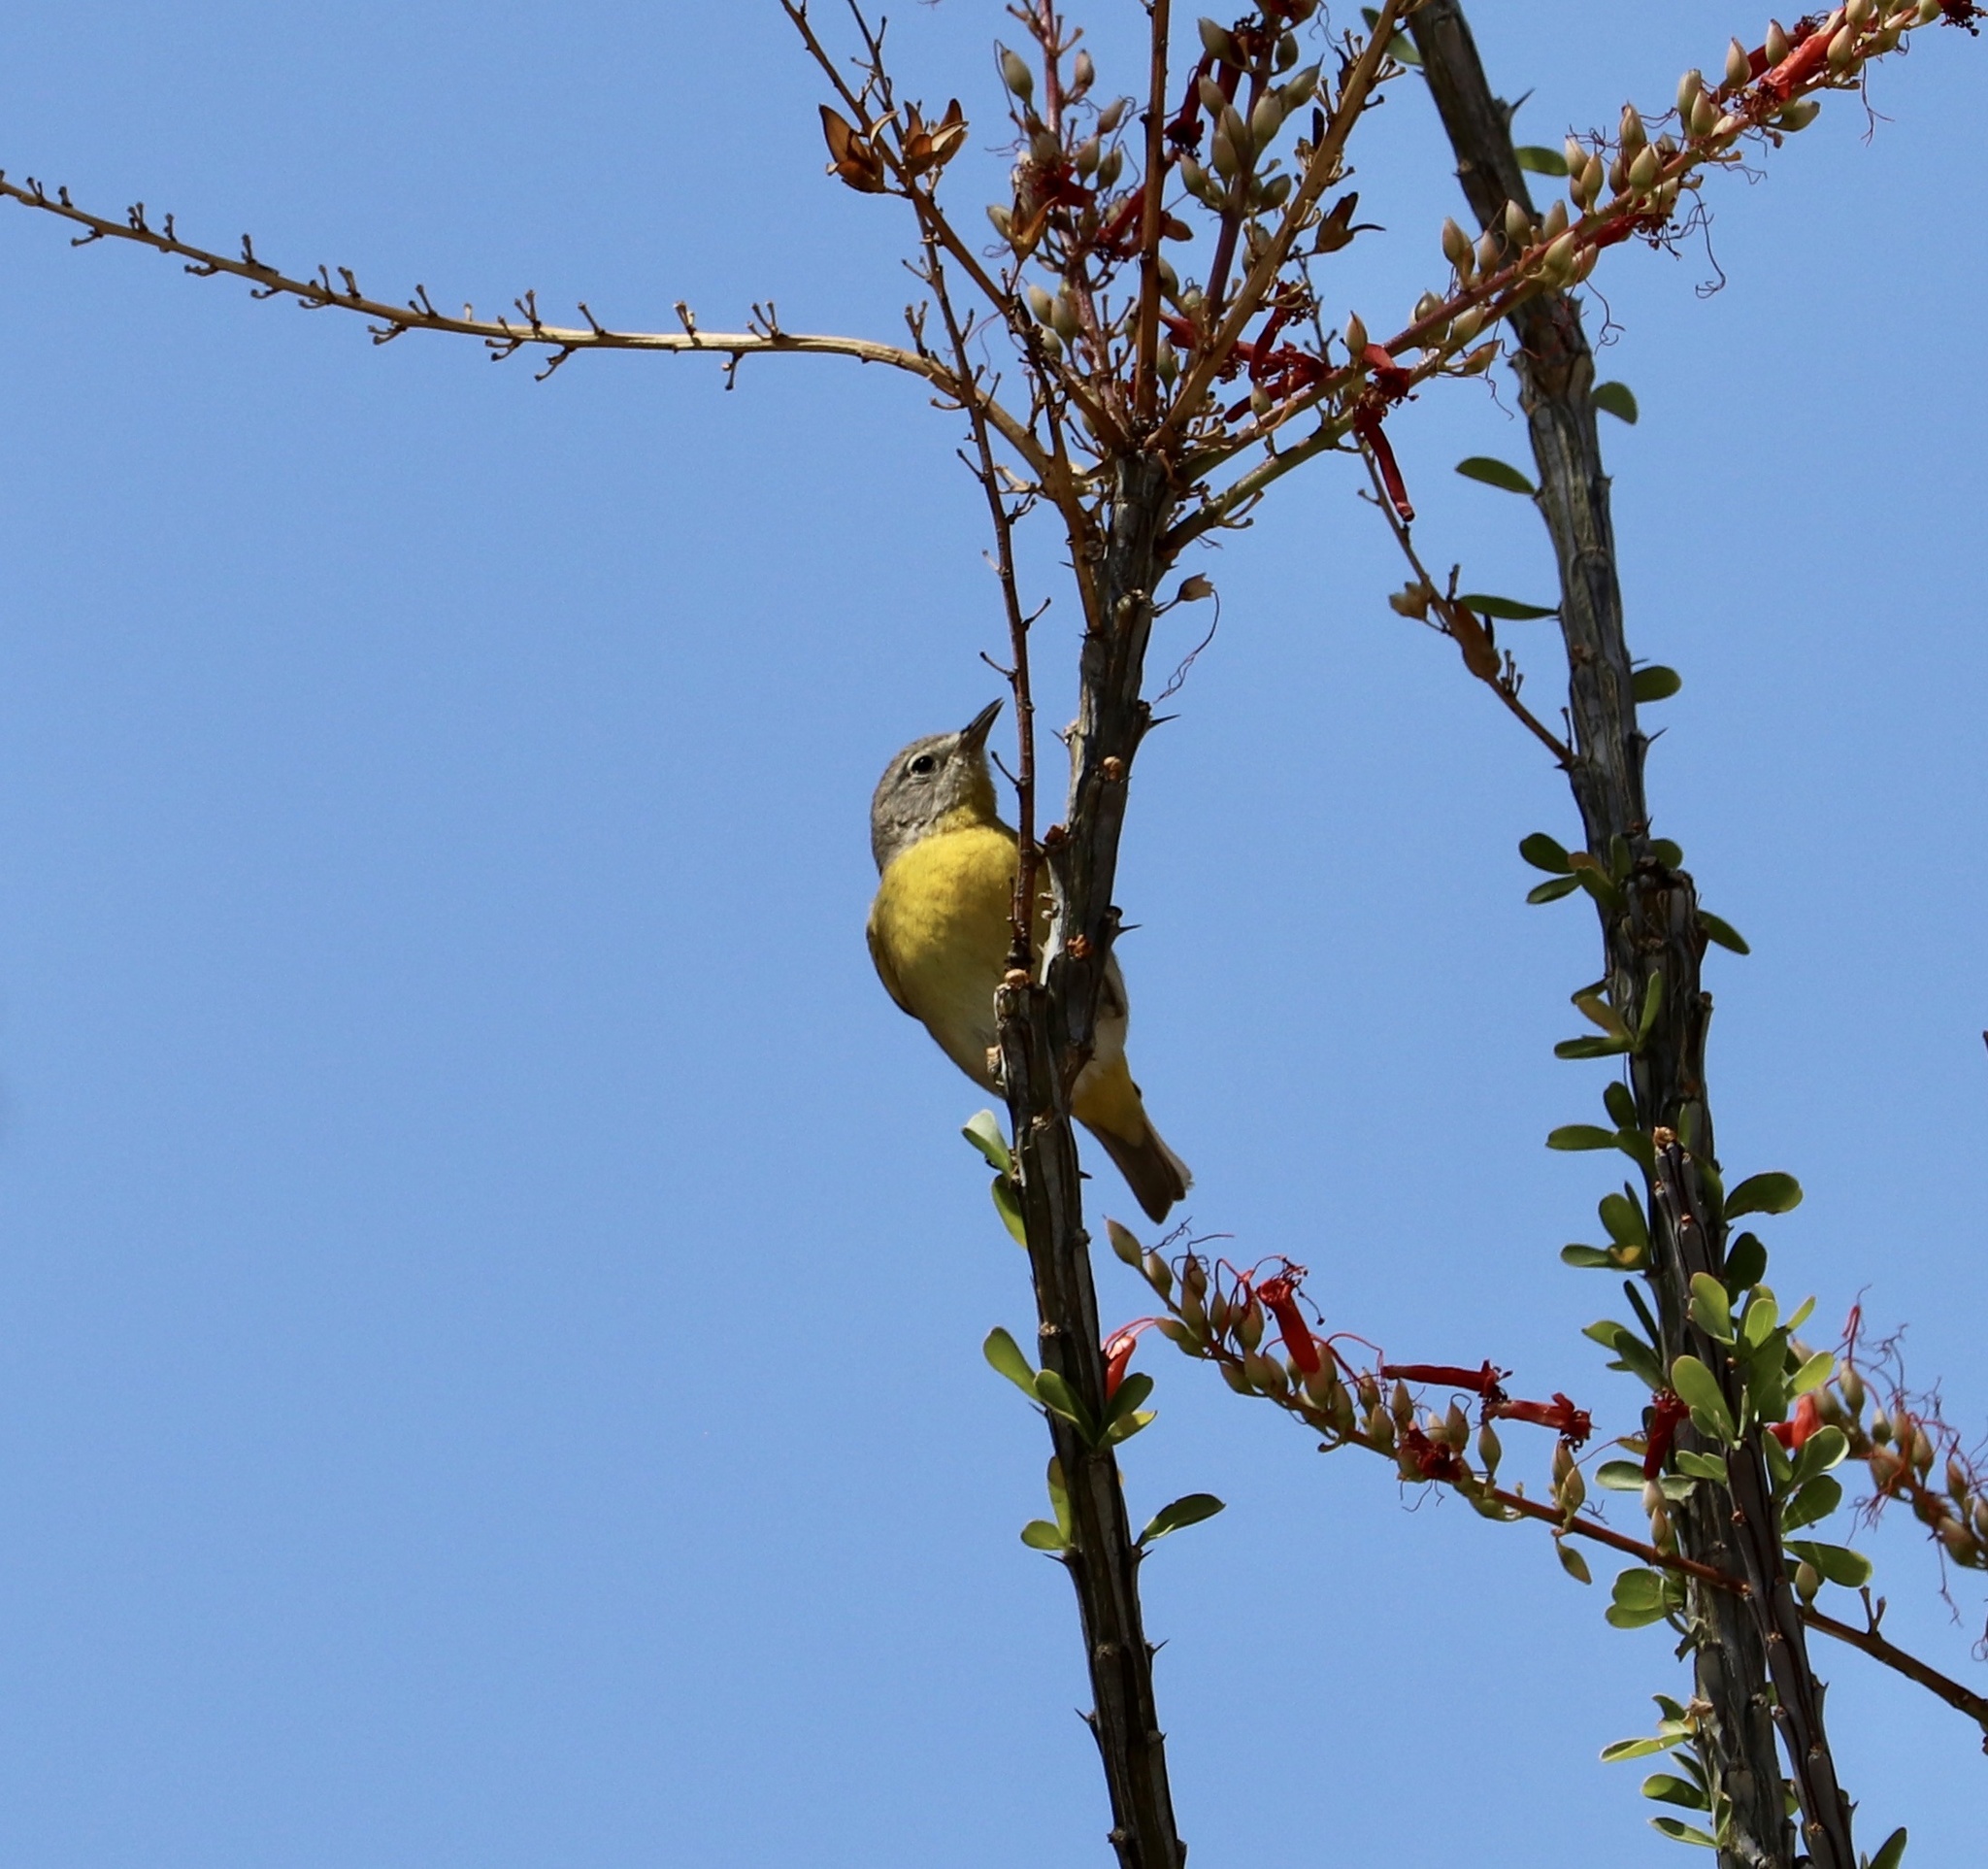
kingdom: Animalia
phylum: Chordata
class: Aves
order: Passeriformes
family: Parulidae
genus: Leiothlypis
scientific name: Leiothlypis ruficapilla
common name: Nashville warbler
